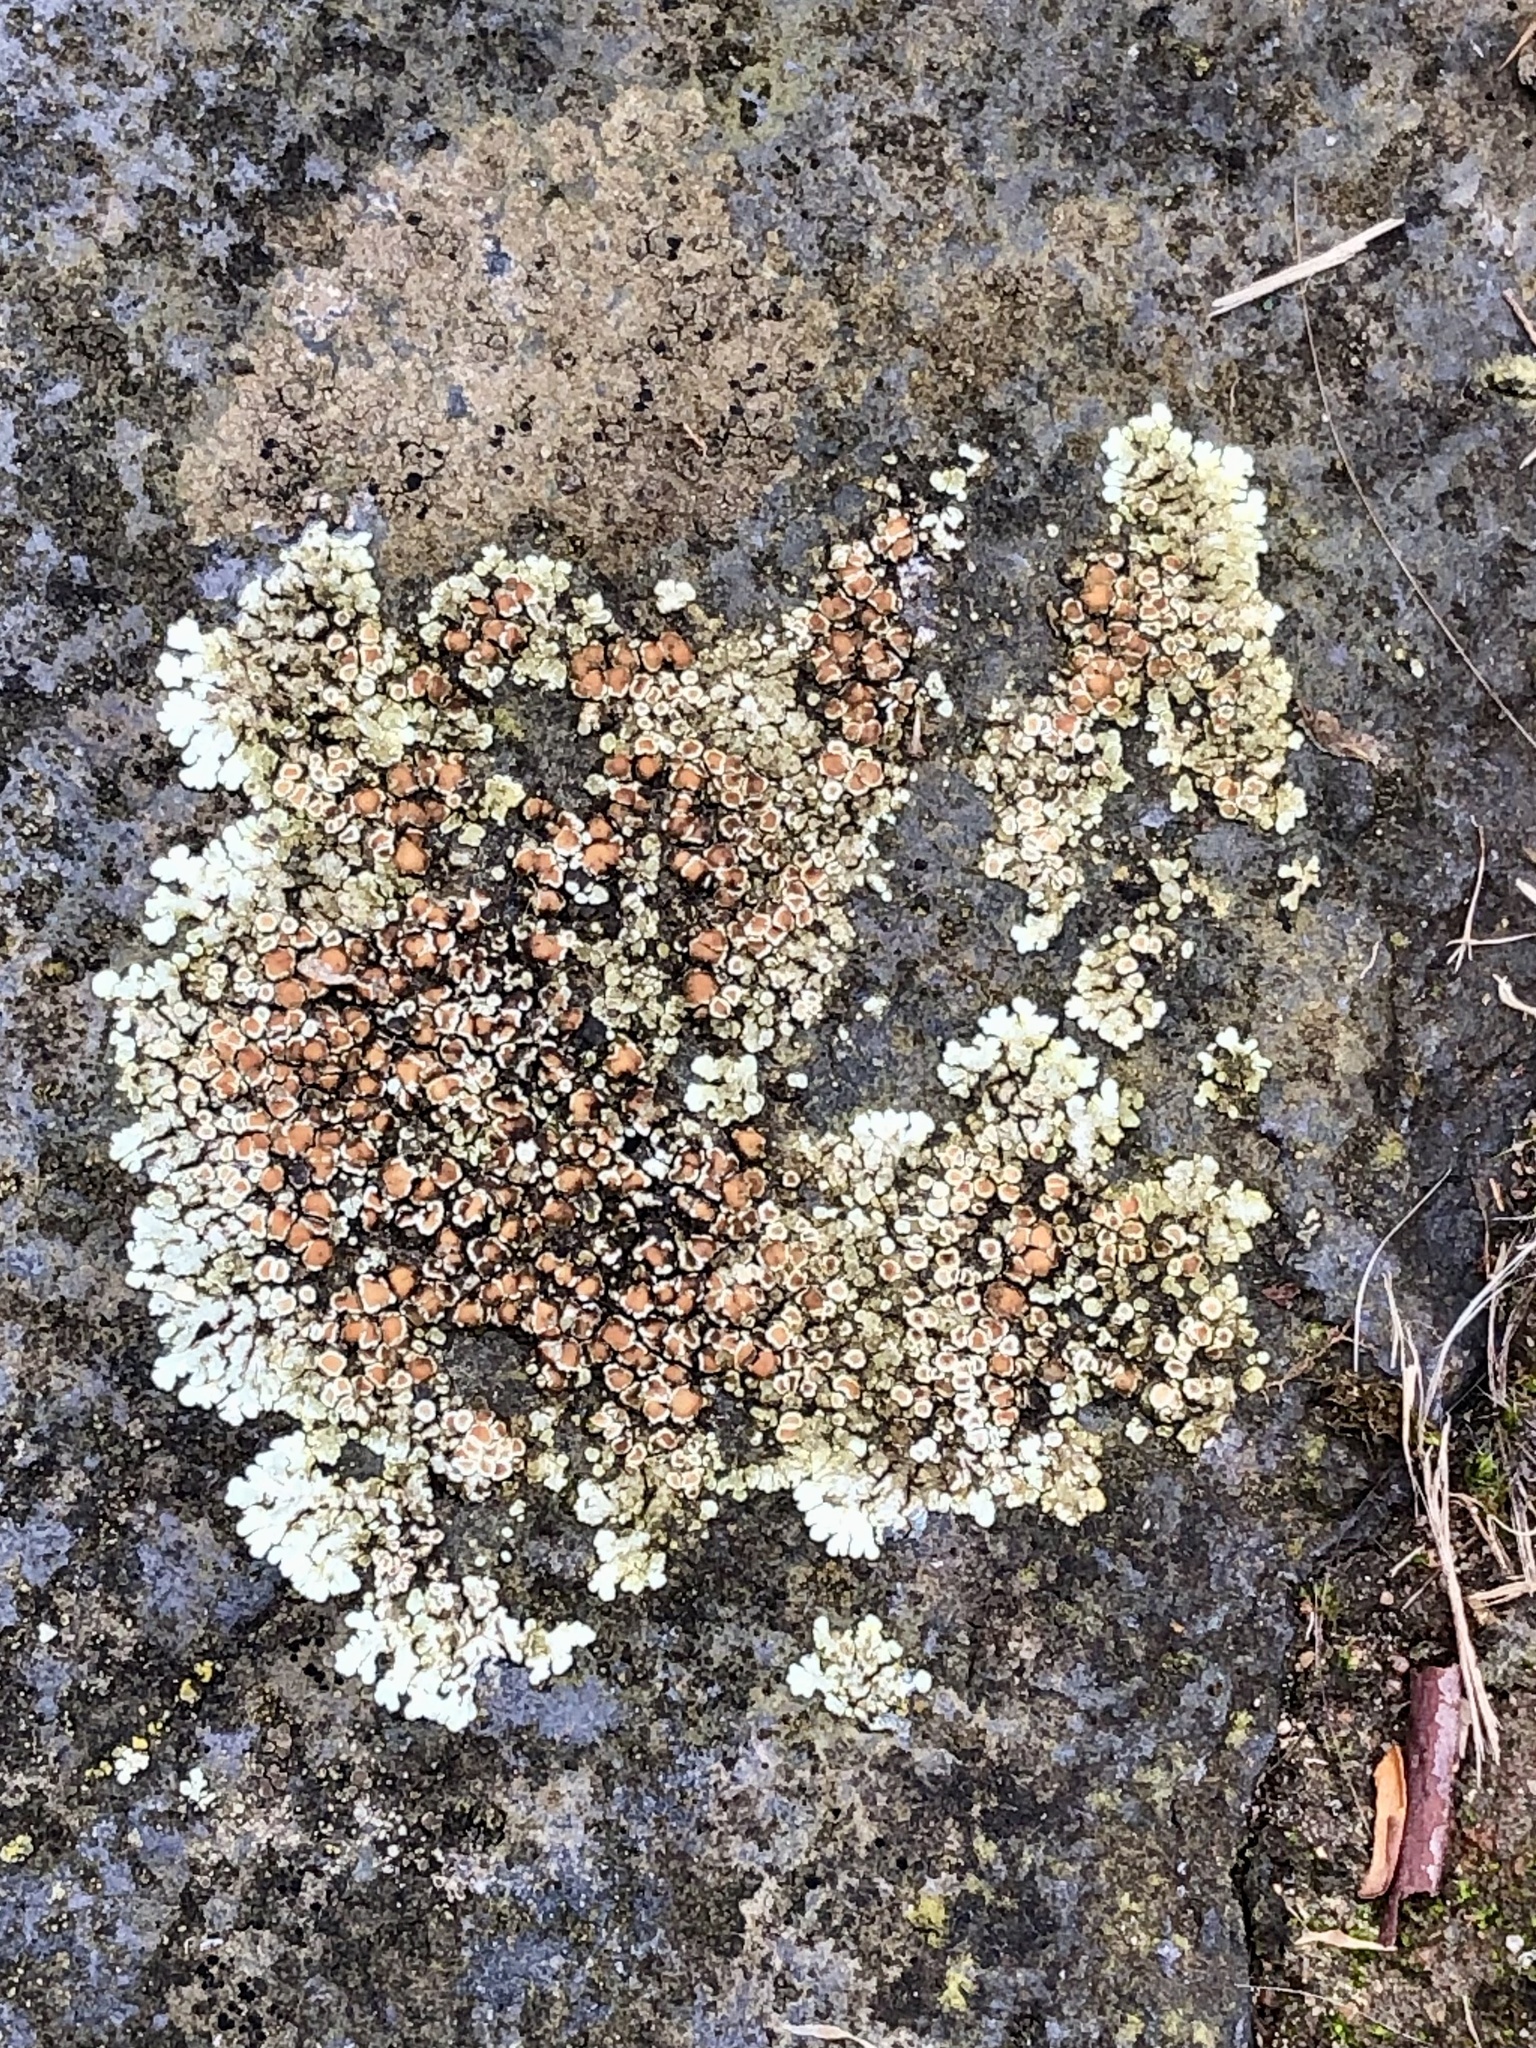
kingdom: Fungi
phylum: Ascomycota
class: Lecanoromycetes
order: Lecanorales
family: Lecanoraceae
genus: Protoparmeliopsis
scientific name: Protoparmeliopsis muralis
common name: Stonewall rim lichen
